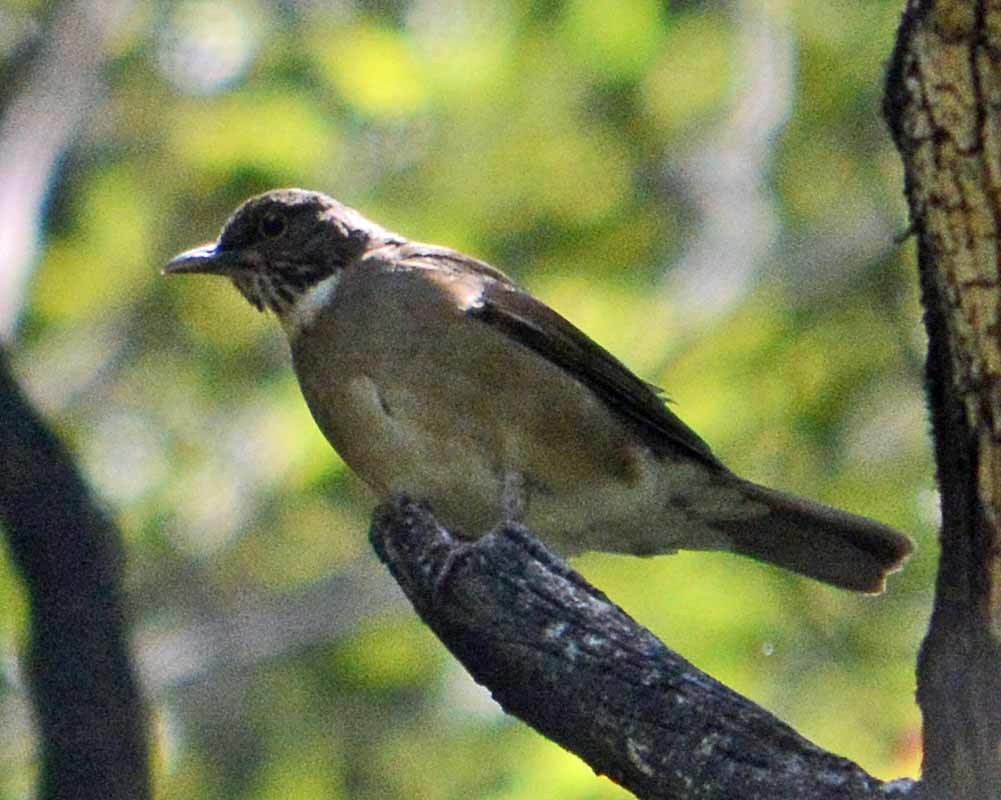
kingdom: Animalia
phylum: Chordata
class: Aves
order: Passeriformes
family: Turdidae
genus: Turdus
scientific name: Turdus assimilis
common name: White-throated thrush
